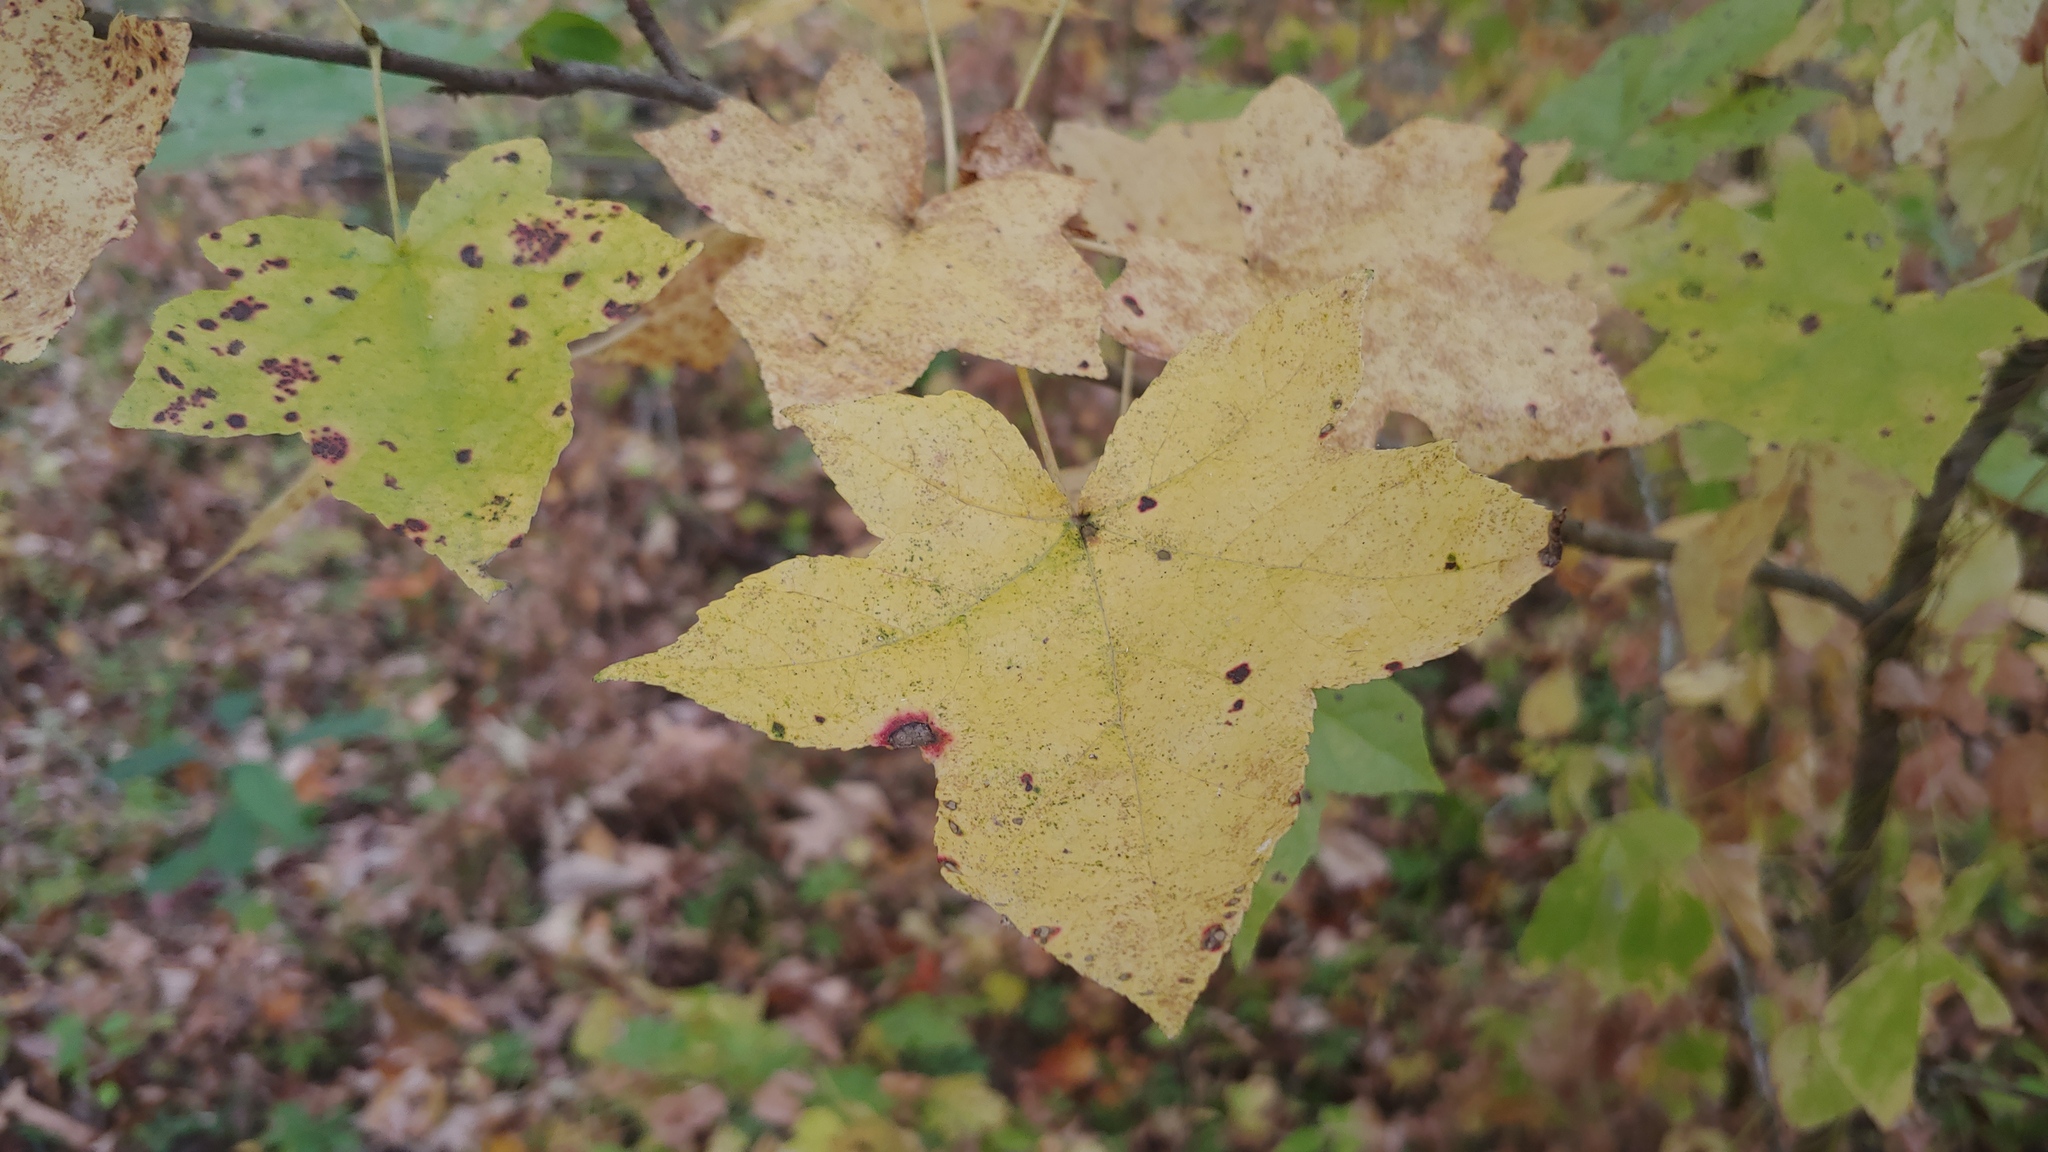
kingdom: Plantae
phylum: Tracheophyta
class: Magnoliopsida
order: Saxifragales
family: Altingiaceae
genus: Liquidambar
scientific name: Liquidambar styraciflua
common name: Sweet gum
